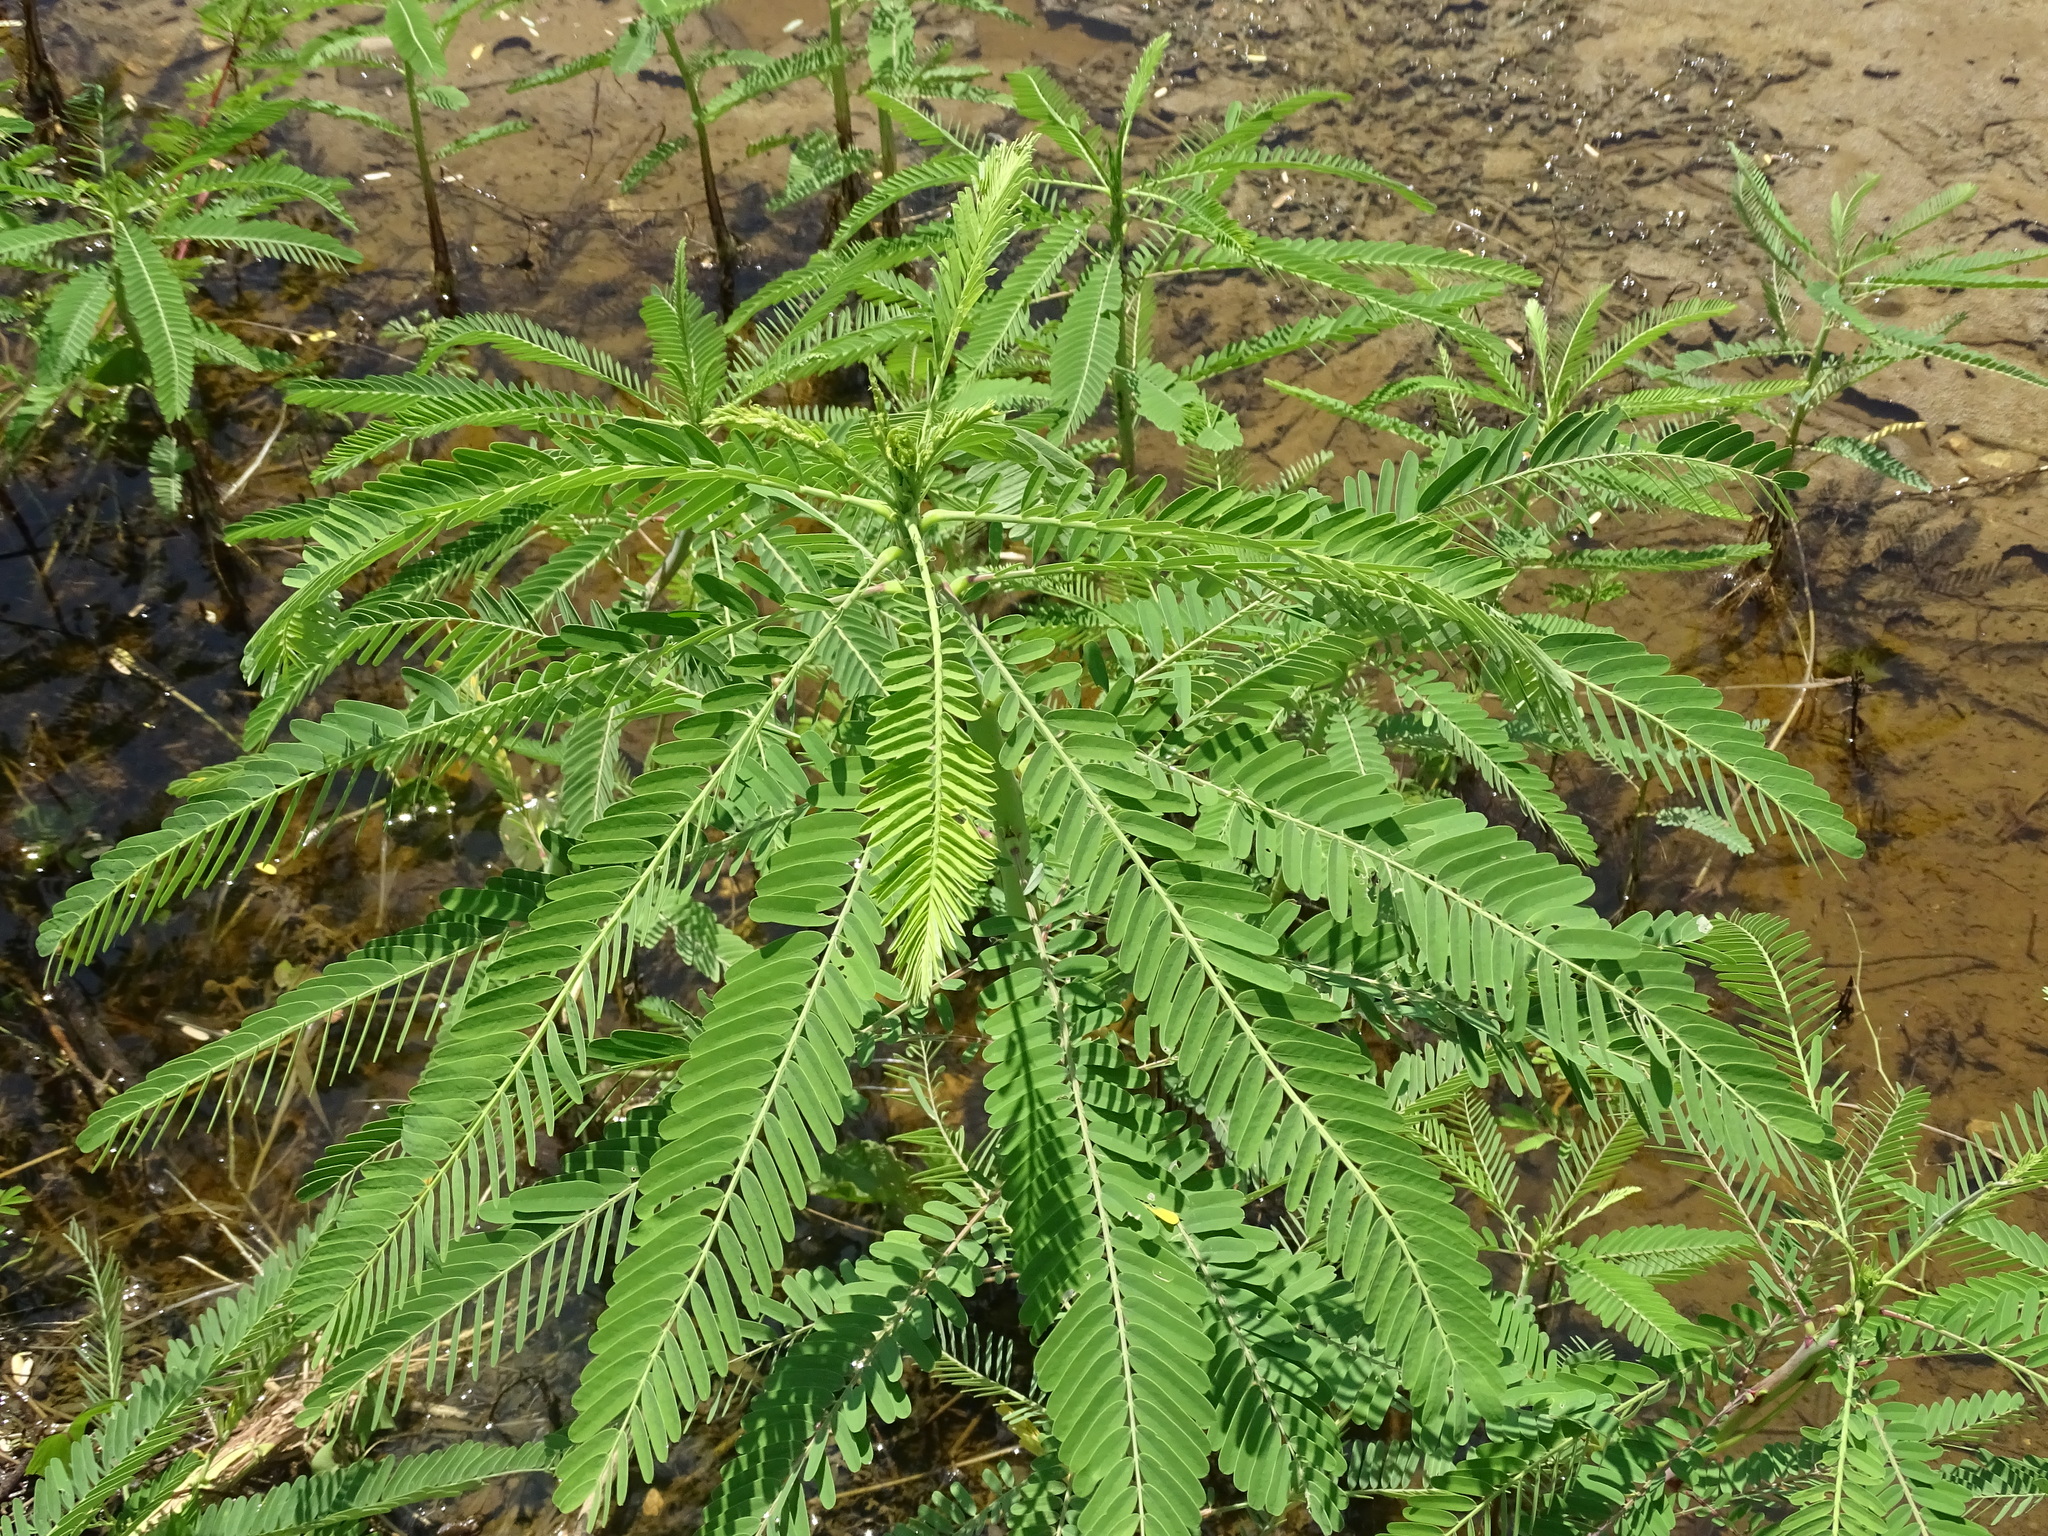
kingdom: Plantae
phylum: Tracheophyta
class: Magnoliopsida
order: Fabales
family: Fabaceae
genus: Sesbania
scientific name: Sesbania herbacea
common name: Bigpod sesbania
